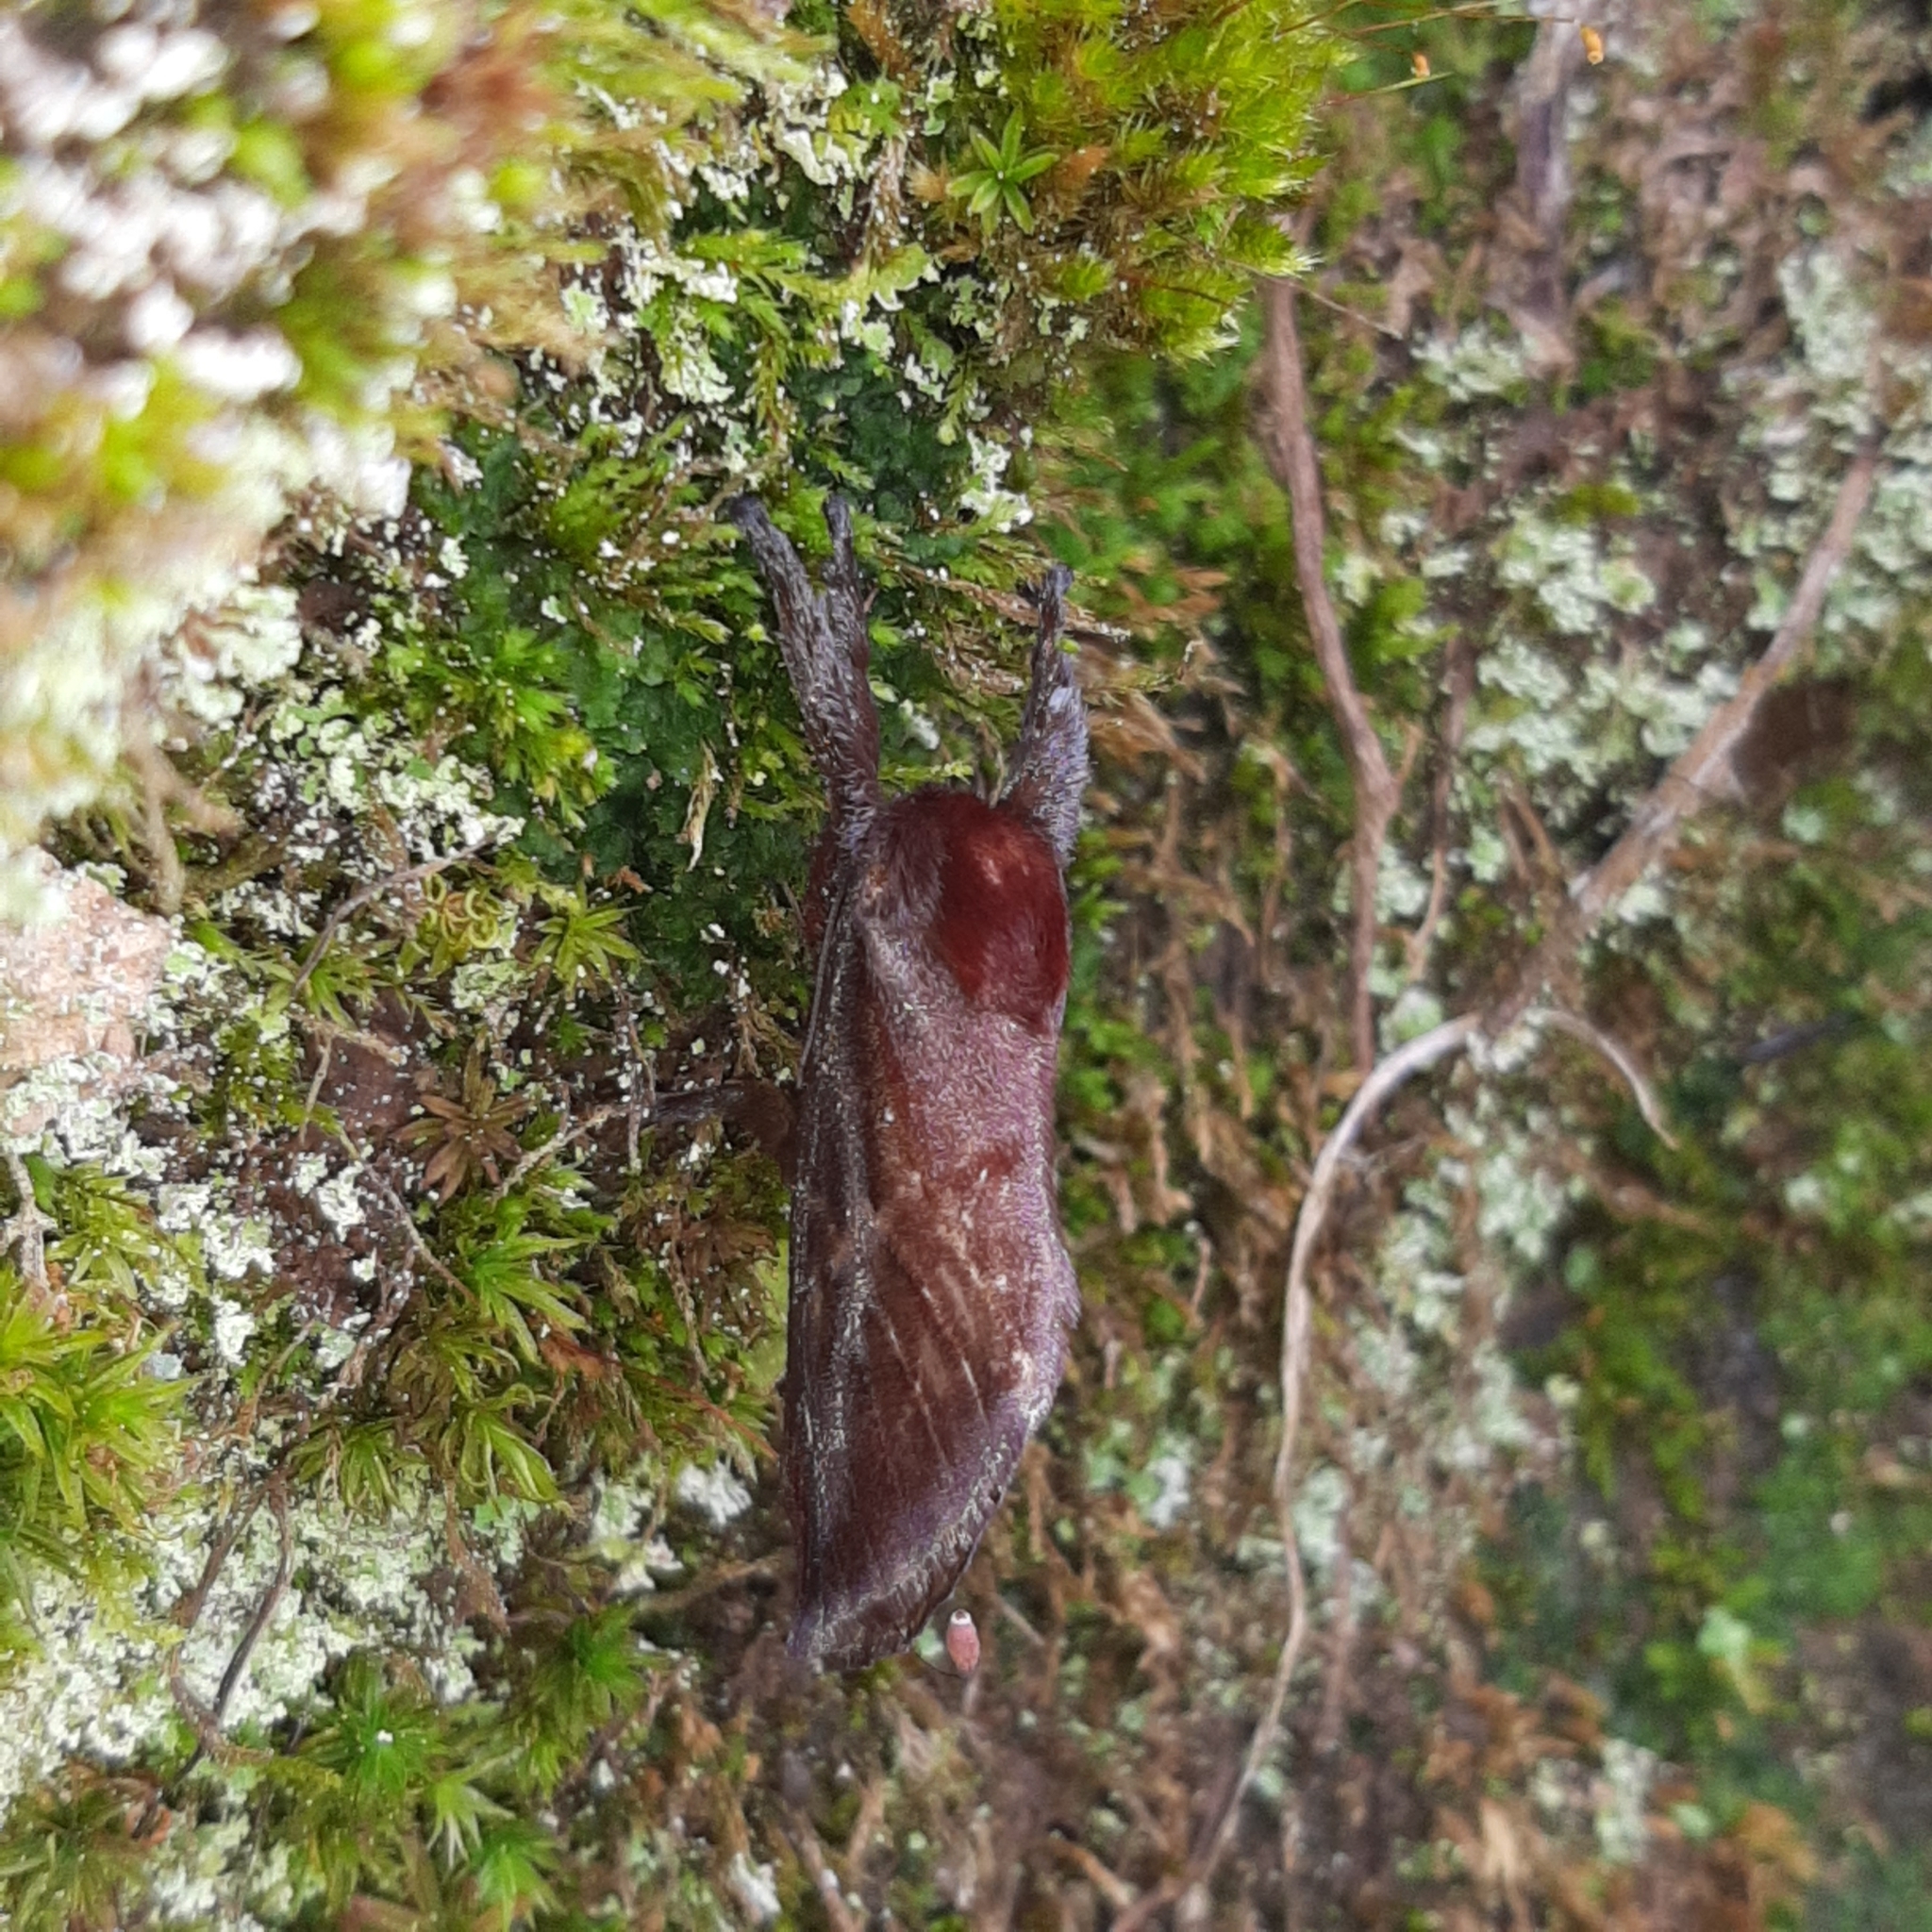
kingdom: Animalia
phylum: Arthropoda
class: Insecta
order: Lepidoptera
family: Limacodidae
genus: Sibine
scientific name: Sibine horrida
